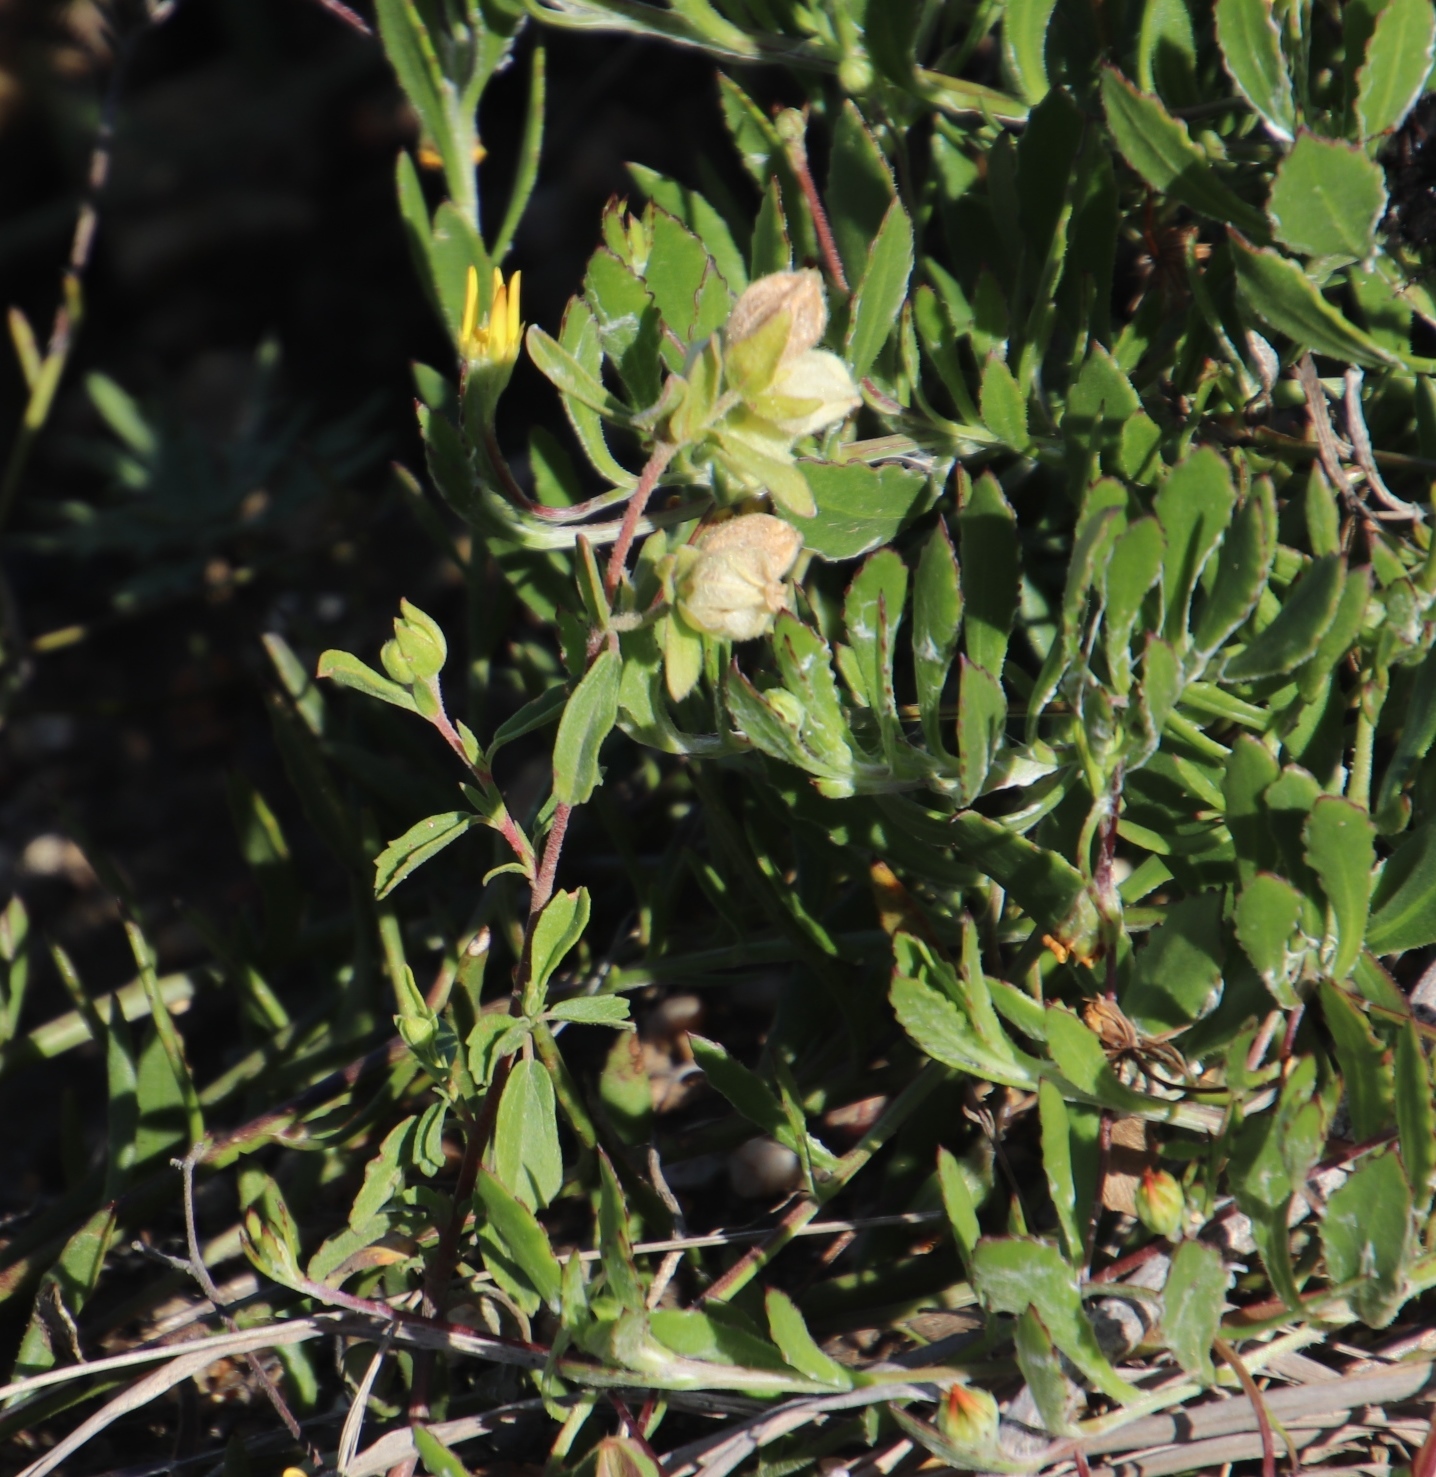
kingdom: Plantae
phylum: Tracheophyta
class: Magnoliopsida
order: Malvales
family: Malvaceae
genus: Hermannia
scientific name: Hermannia hyssopifolia
